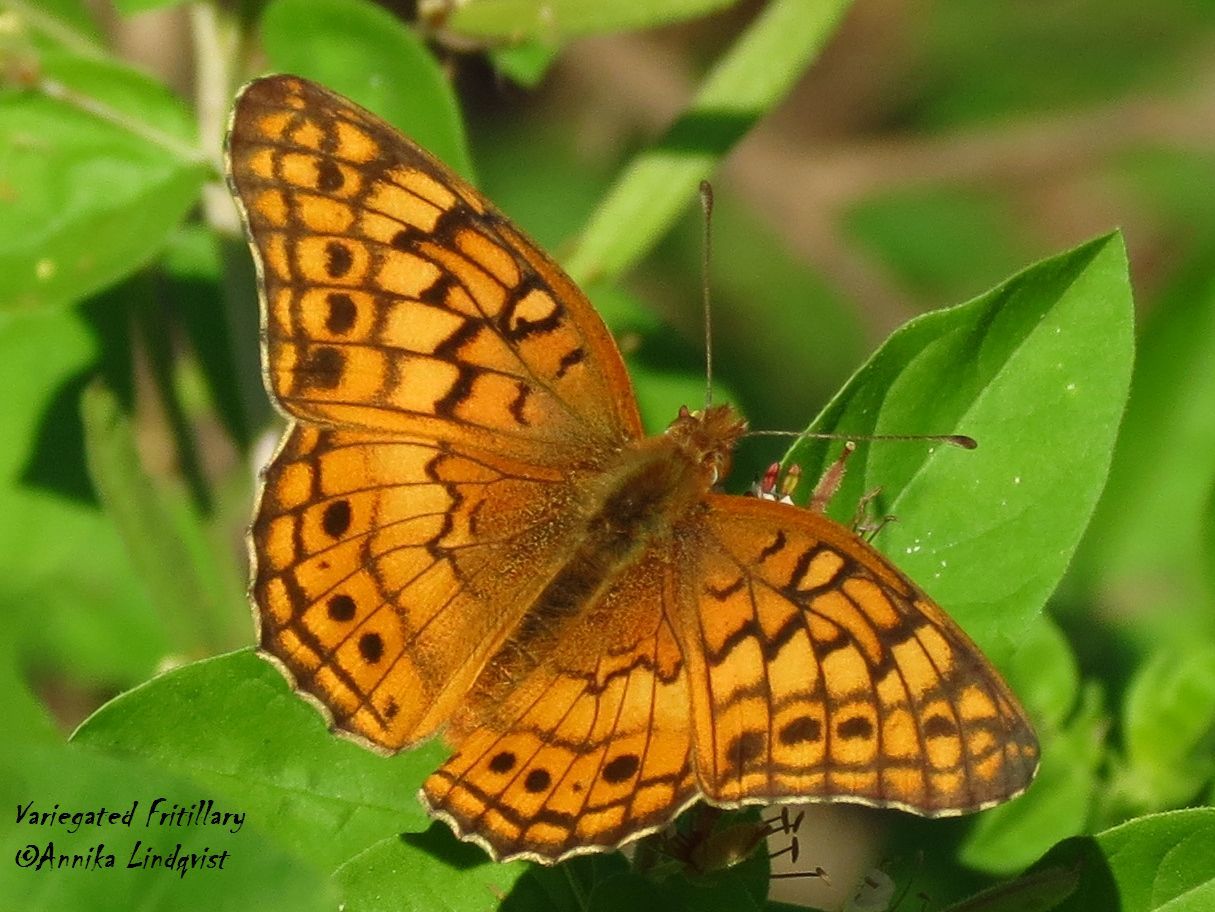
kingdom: Animalia
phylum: Arthropoda
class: Insecta
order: Lepidoptera
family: Nymphalidae
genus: Euptoieta
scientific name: Euptoieta claudia
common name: Variegated fritillary
